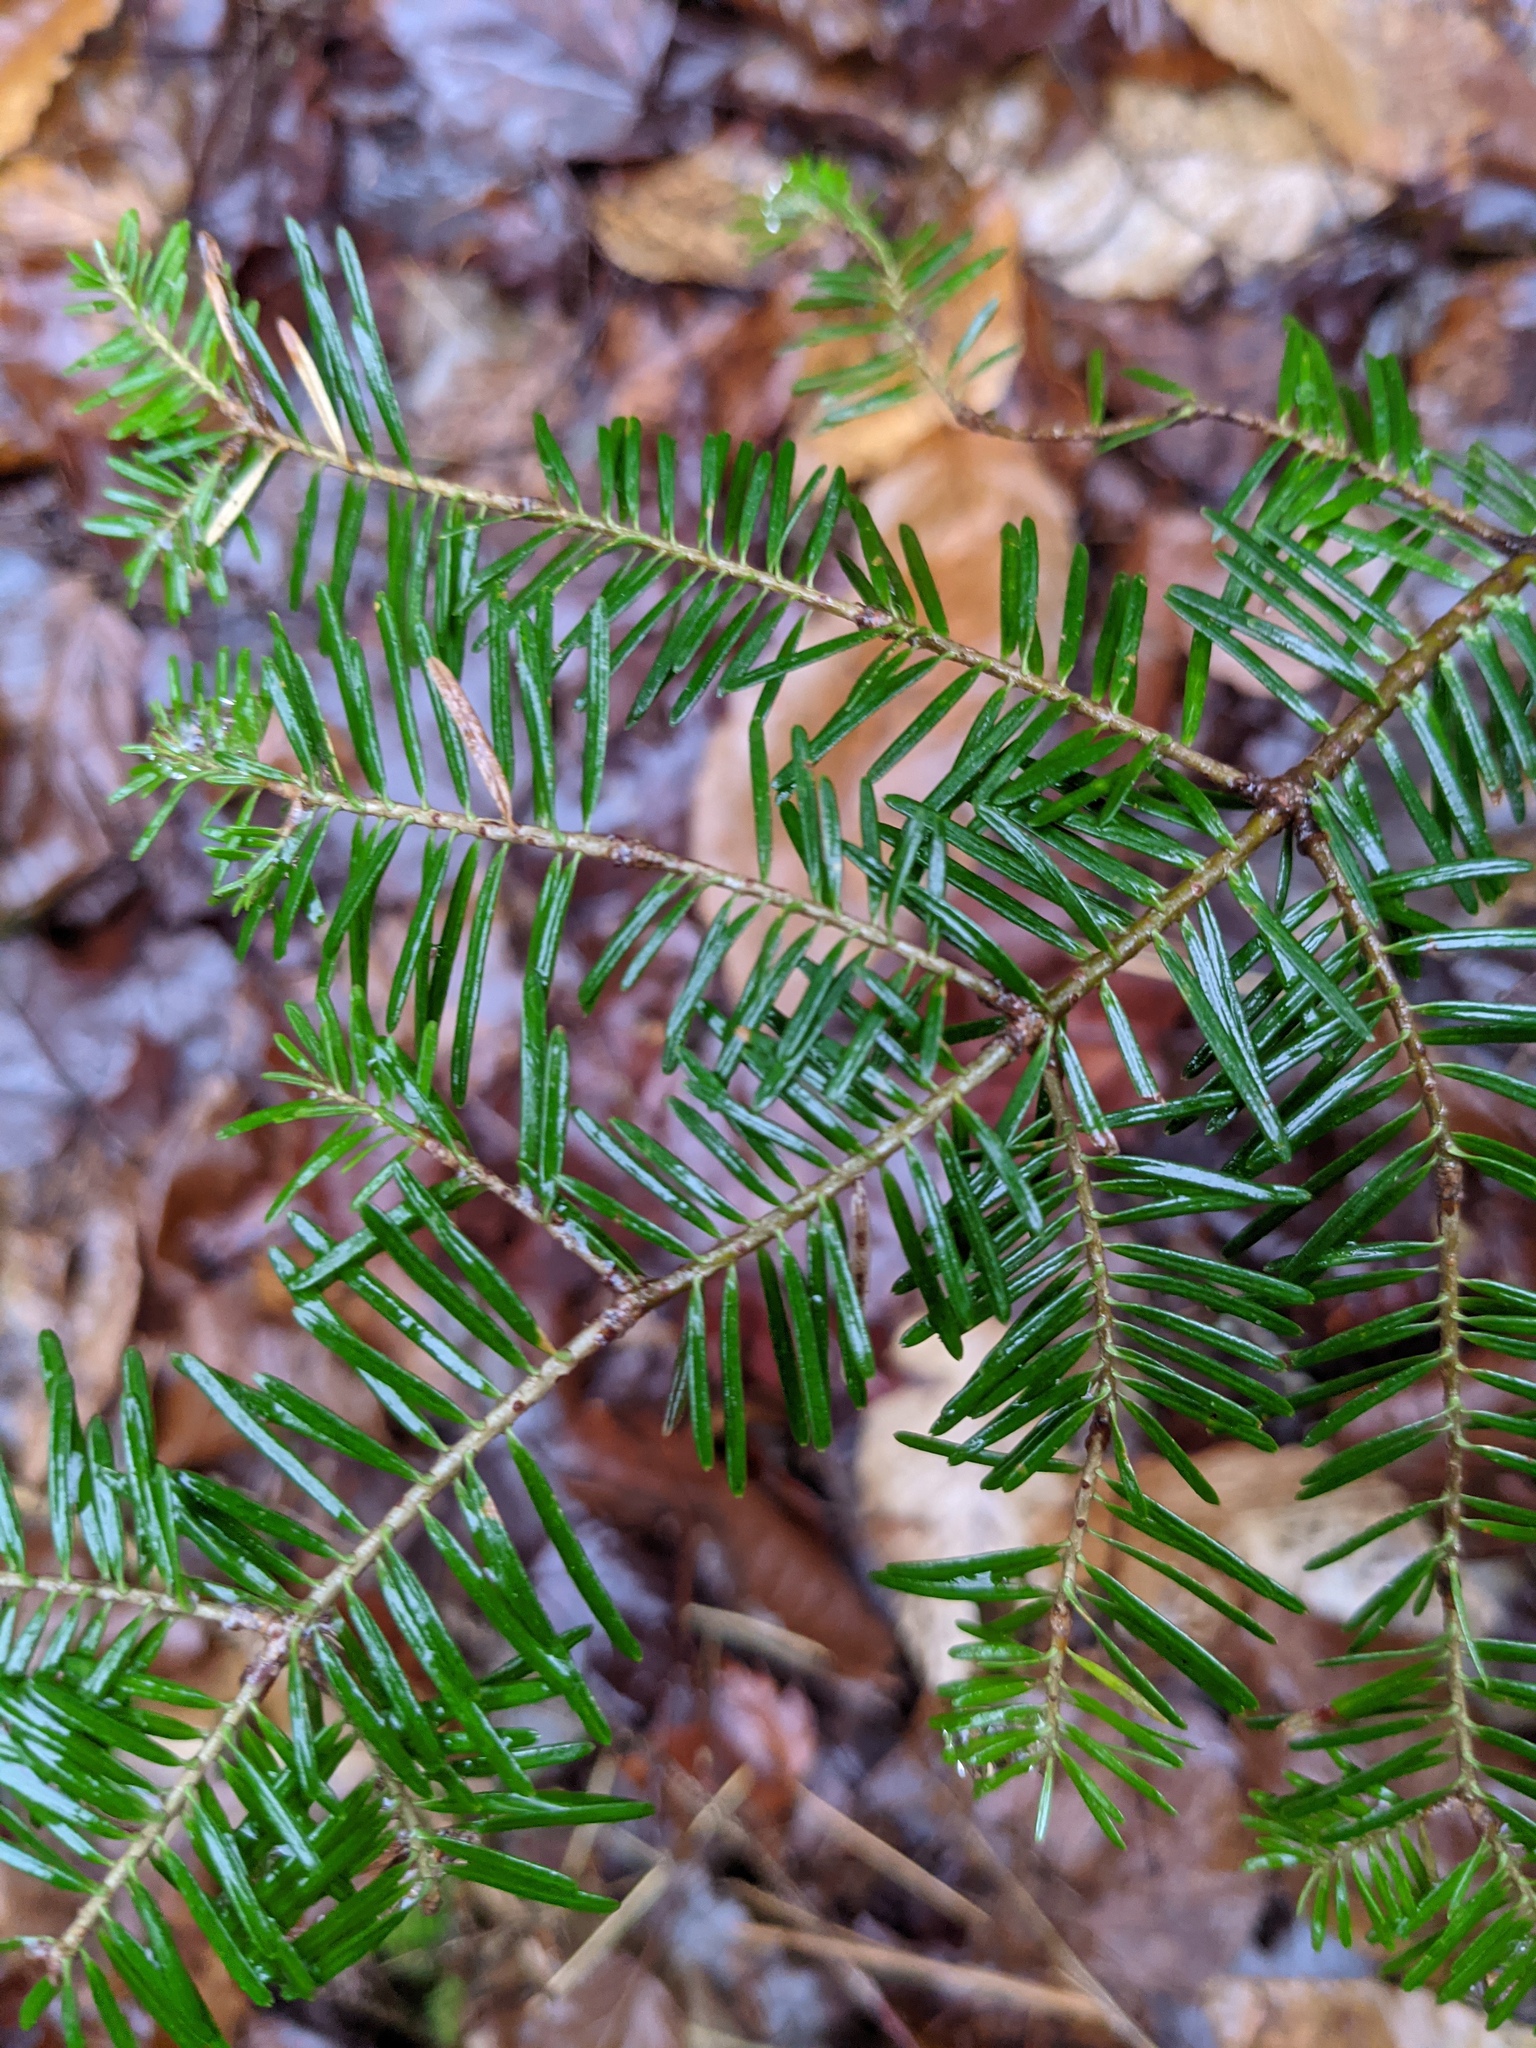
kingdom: Plantae
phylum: Tracheophyta
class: Pinopsida
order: Pinales
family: Pinaceae
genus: Abies
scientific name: Abies balsamea
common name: Balsam fir
